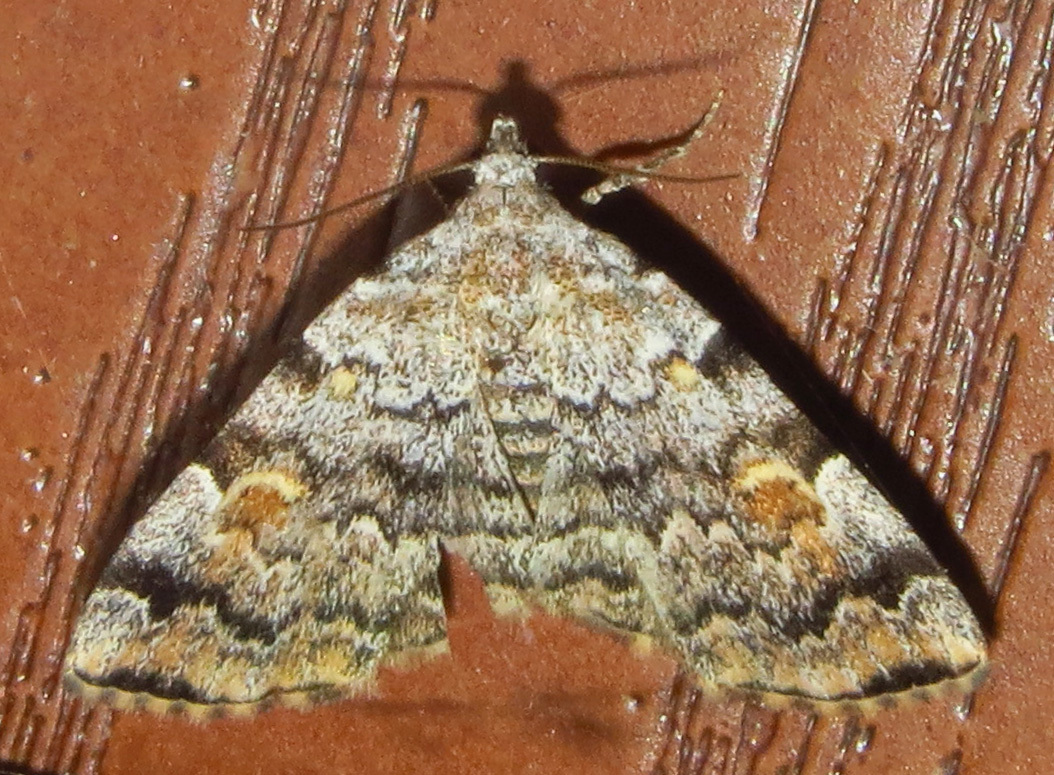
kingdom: Animalia
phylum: Arthropoda
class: Insecta
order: Lepidoptera
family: Erebidae
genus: Idia
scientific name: Idia americalis
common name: American idia moth
